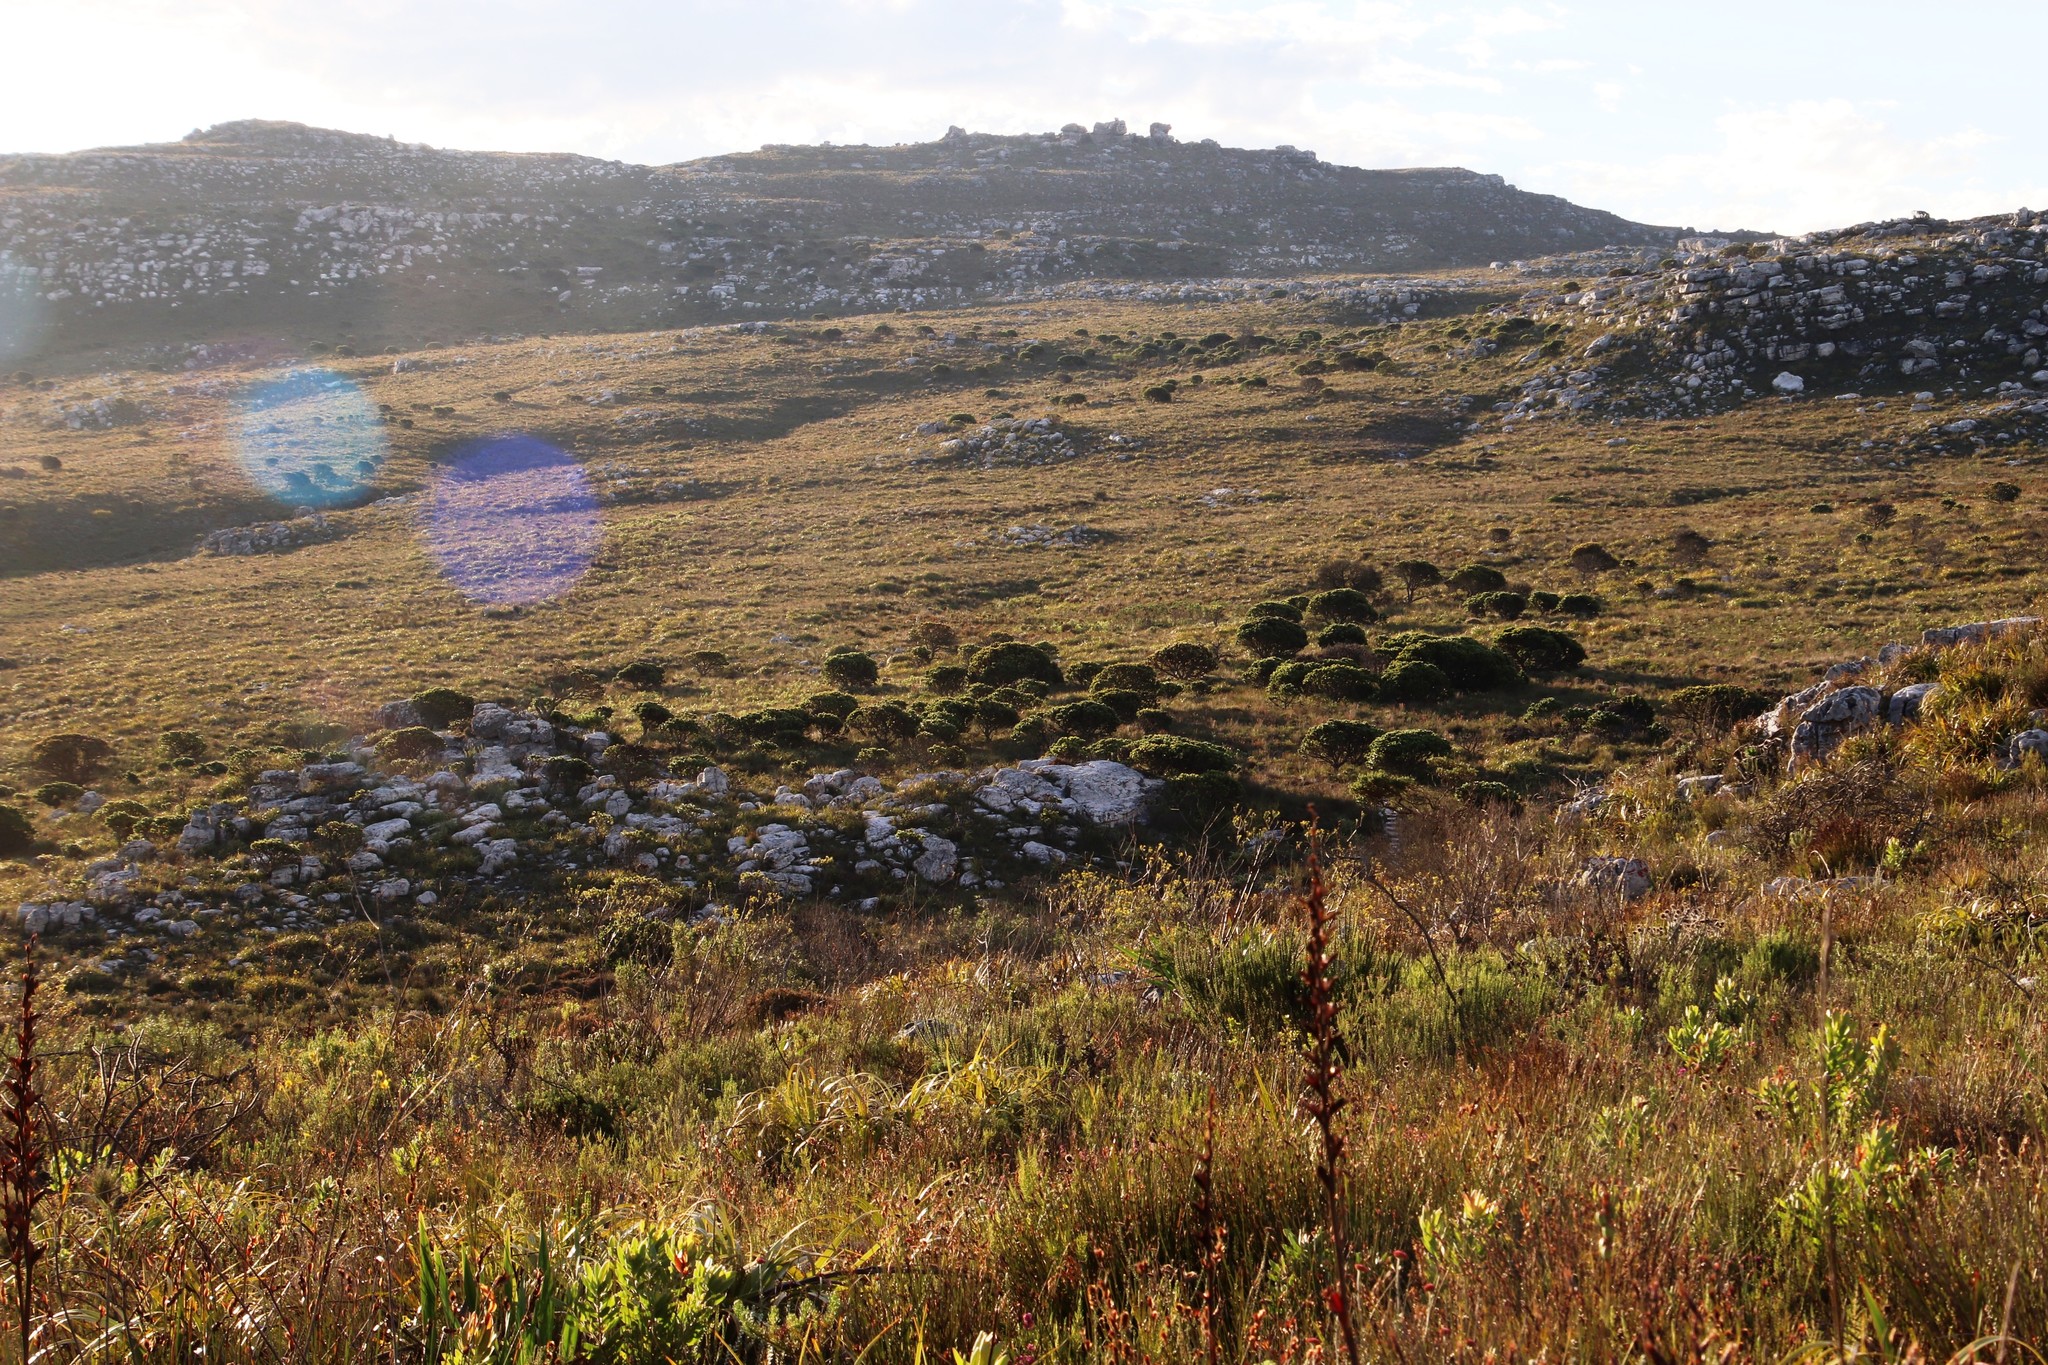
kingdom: Plantae
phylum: Tracheophyta
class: Magnoliopsida
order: Proteales
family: Proteaceae
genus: Mimetes
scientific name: Mimetes fimbriifolius
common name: Fringed bottlebrush
